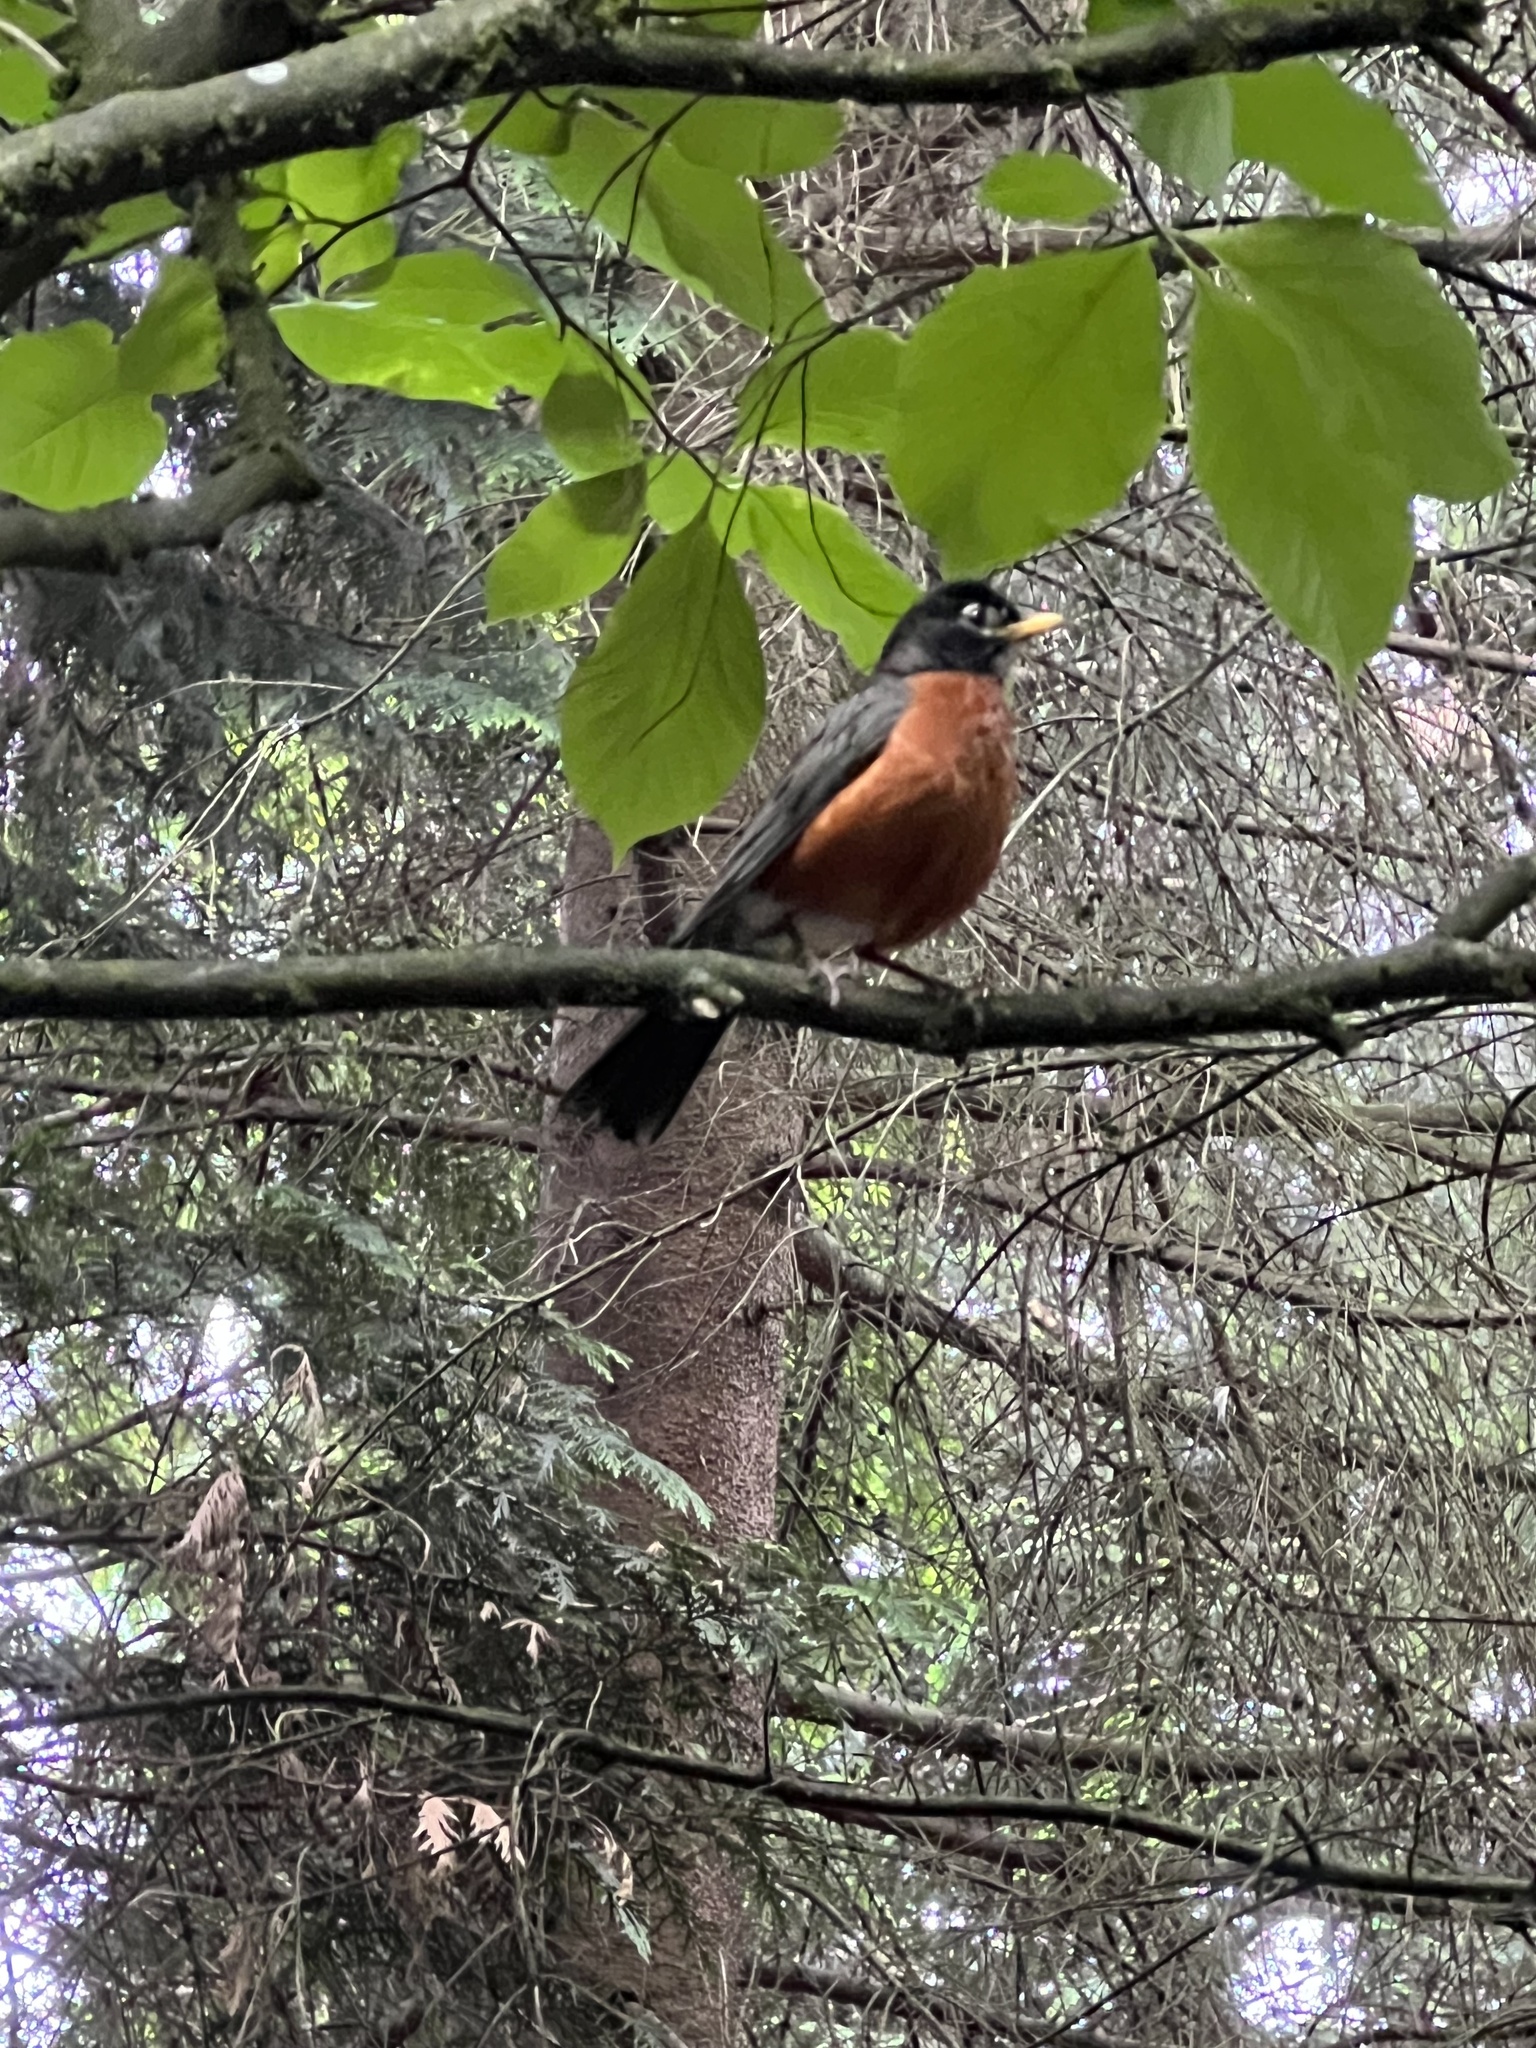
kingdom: Animalia
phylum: Chordata
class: Aves
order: Passeriformes
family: Turdidae
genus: Turdus
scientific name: Turdus migratorius
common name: American robin
